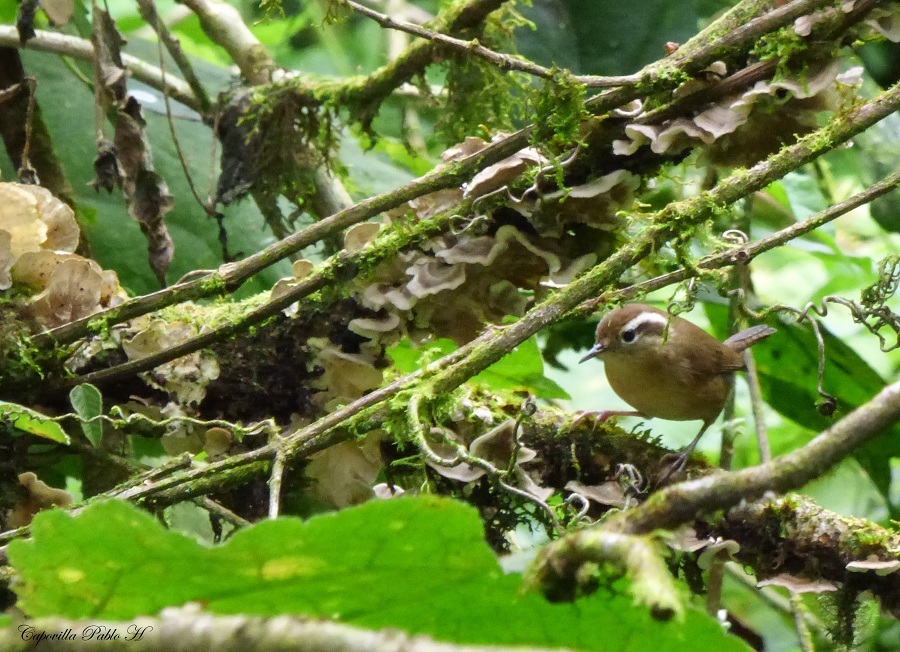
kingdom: Animalia
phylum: Chordata
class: Aves
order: Passeriformes
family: Troglodytidae
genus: Troglodytes
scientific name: Troglodytes solstitialis
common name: Mountain wren
